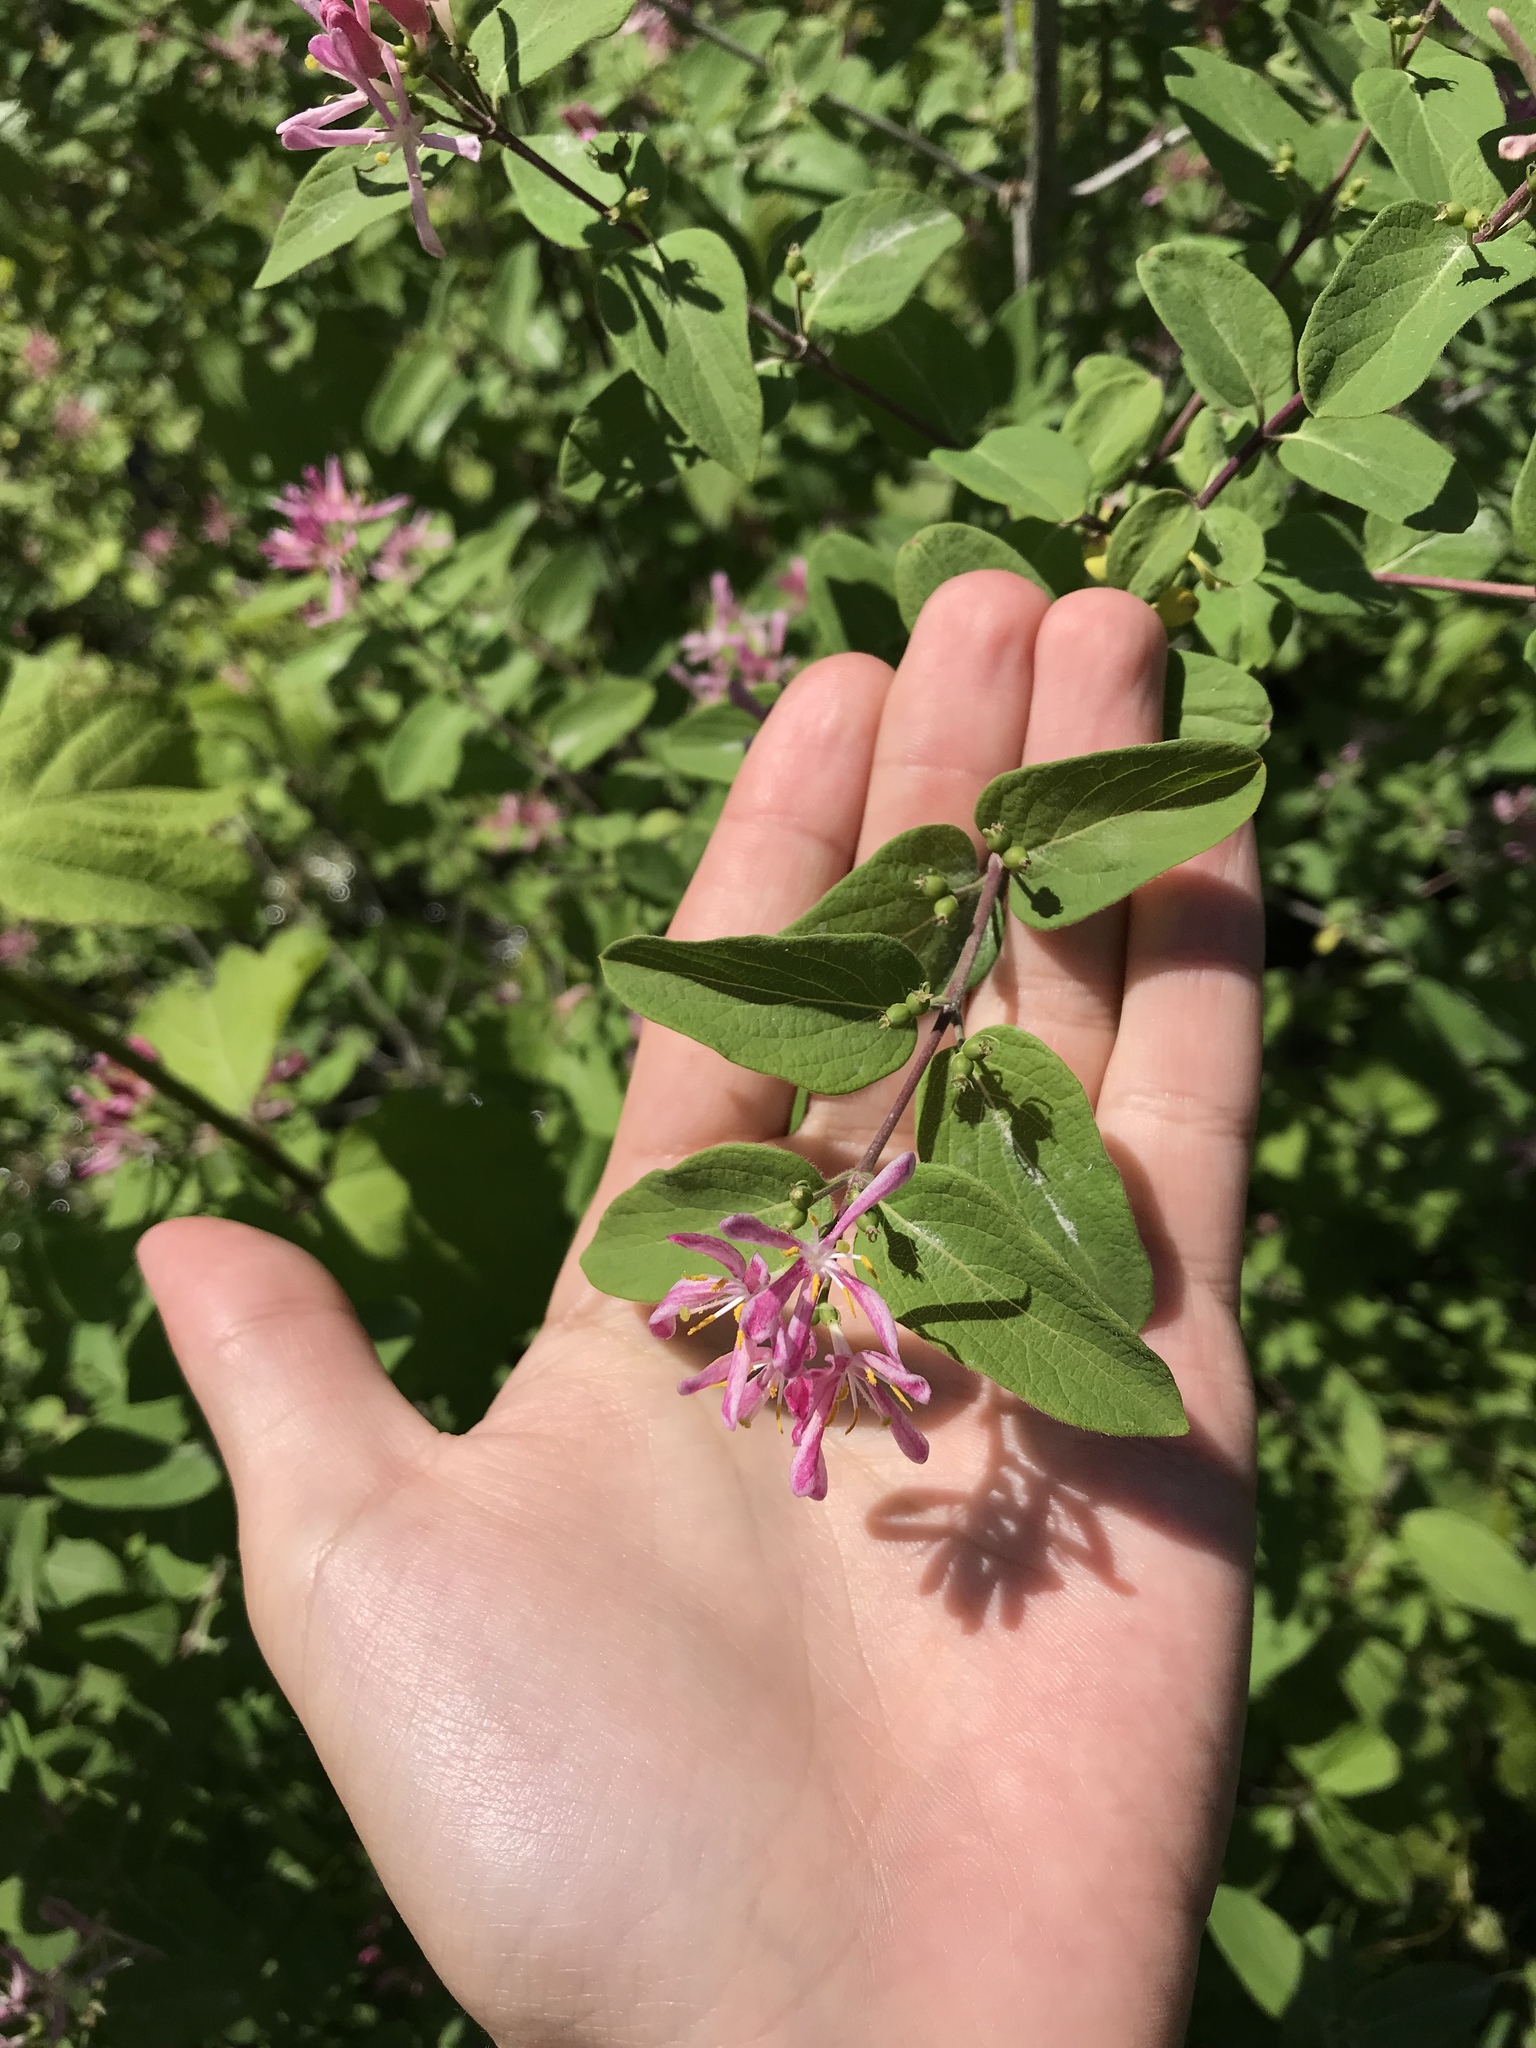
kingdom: Plantae
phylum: Tracheophyta
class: Magnoliopsida
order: Dipsacales
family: Caprifoliaceae
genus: Lonicera
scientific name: Lonicera tatarica
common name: Tatarian honeysuckle
